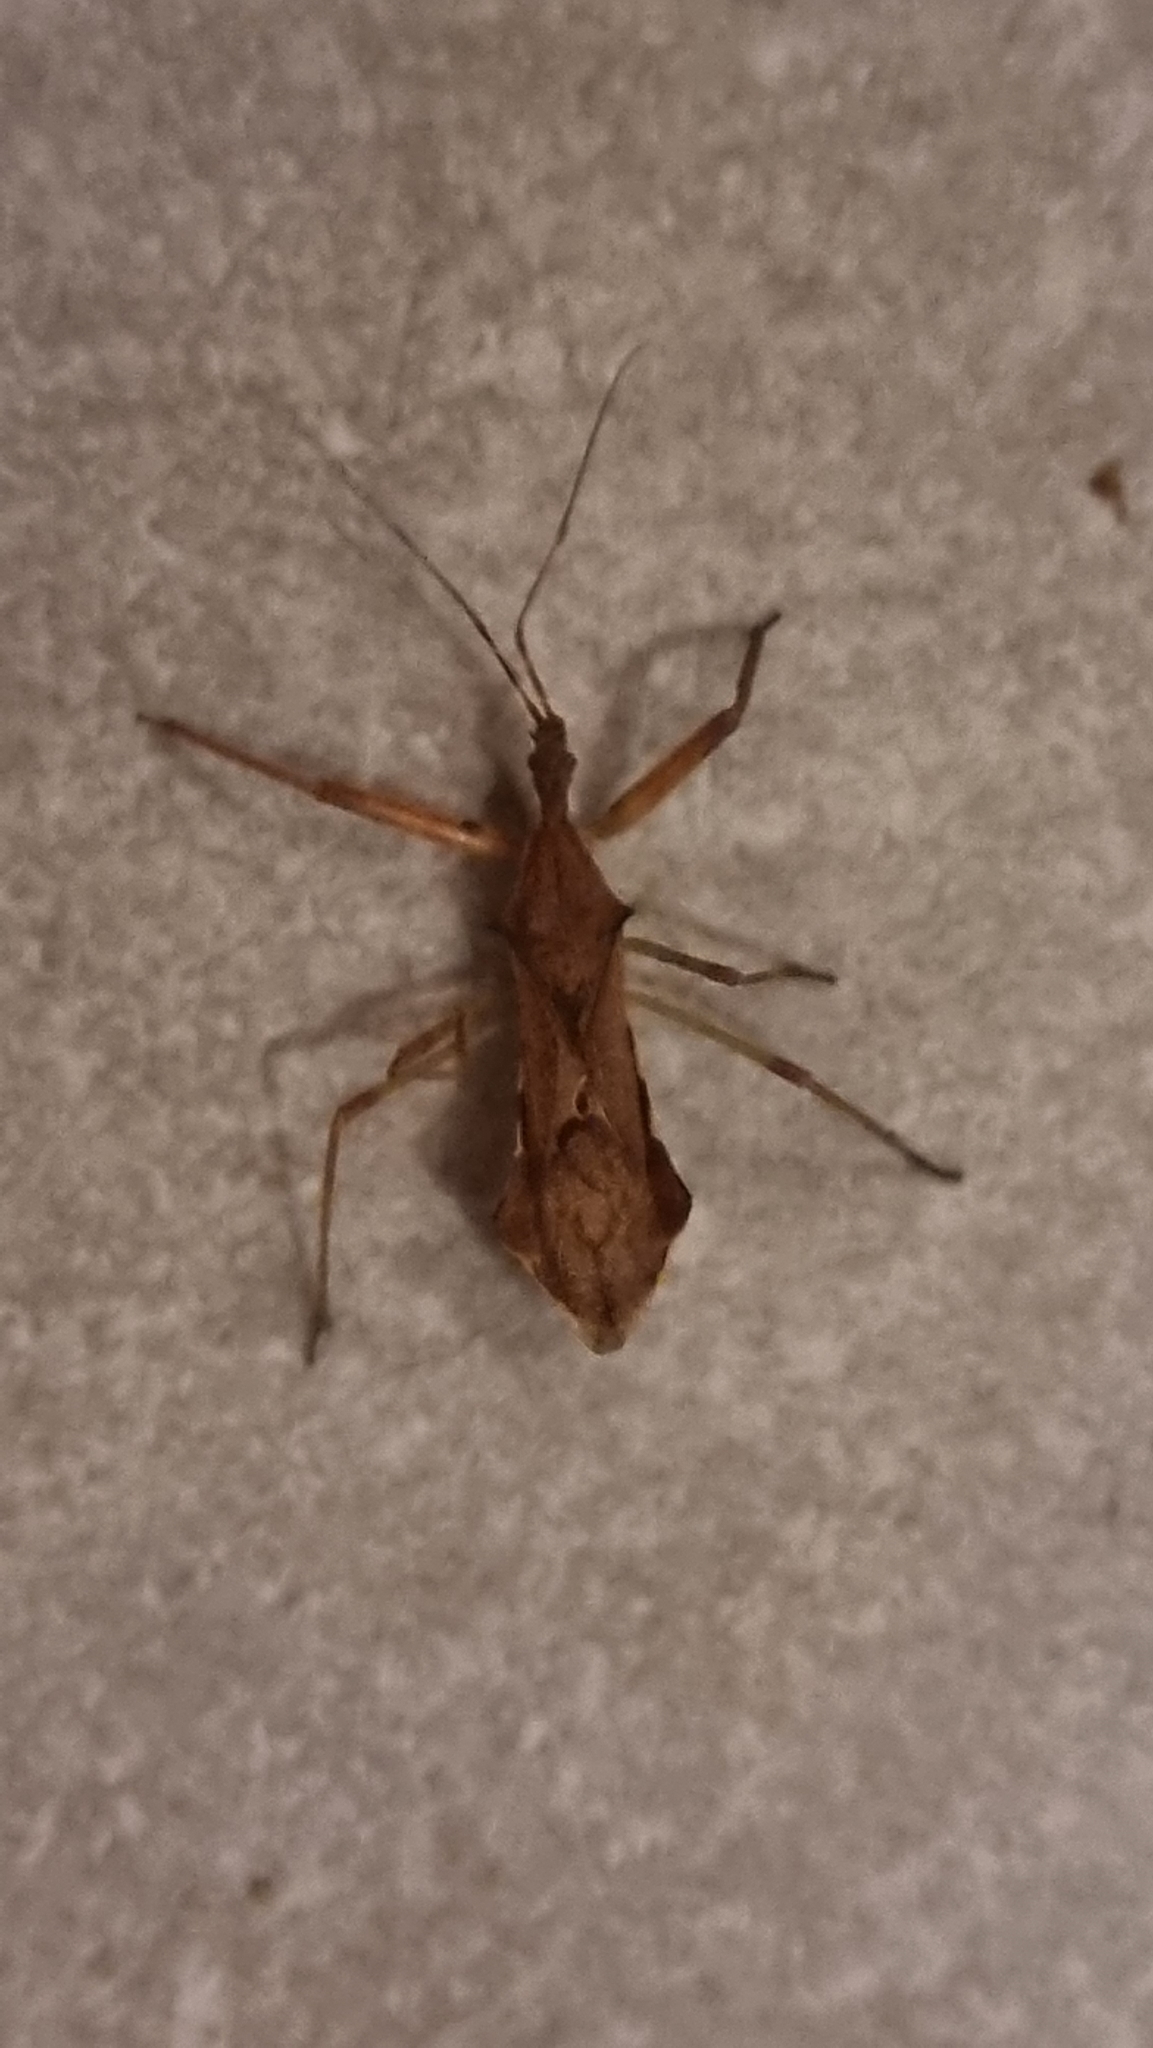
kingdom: Animalia
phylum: Arthropoda
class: Insecta
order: Hemiptera
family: Reduviidae
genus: Nagusta
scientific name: Nagusta goedelii
